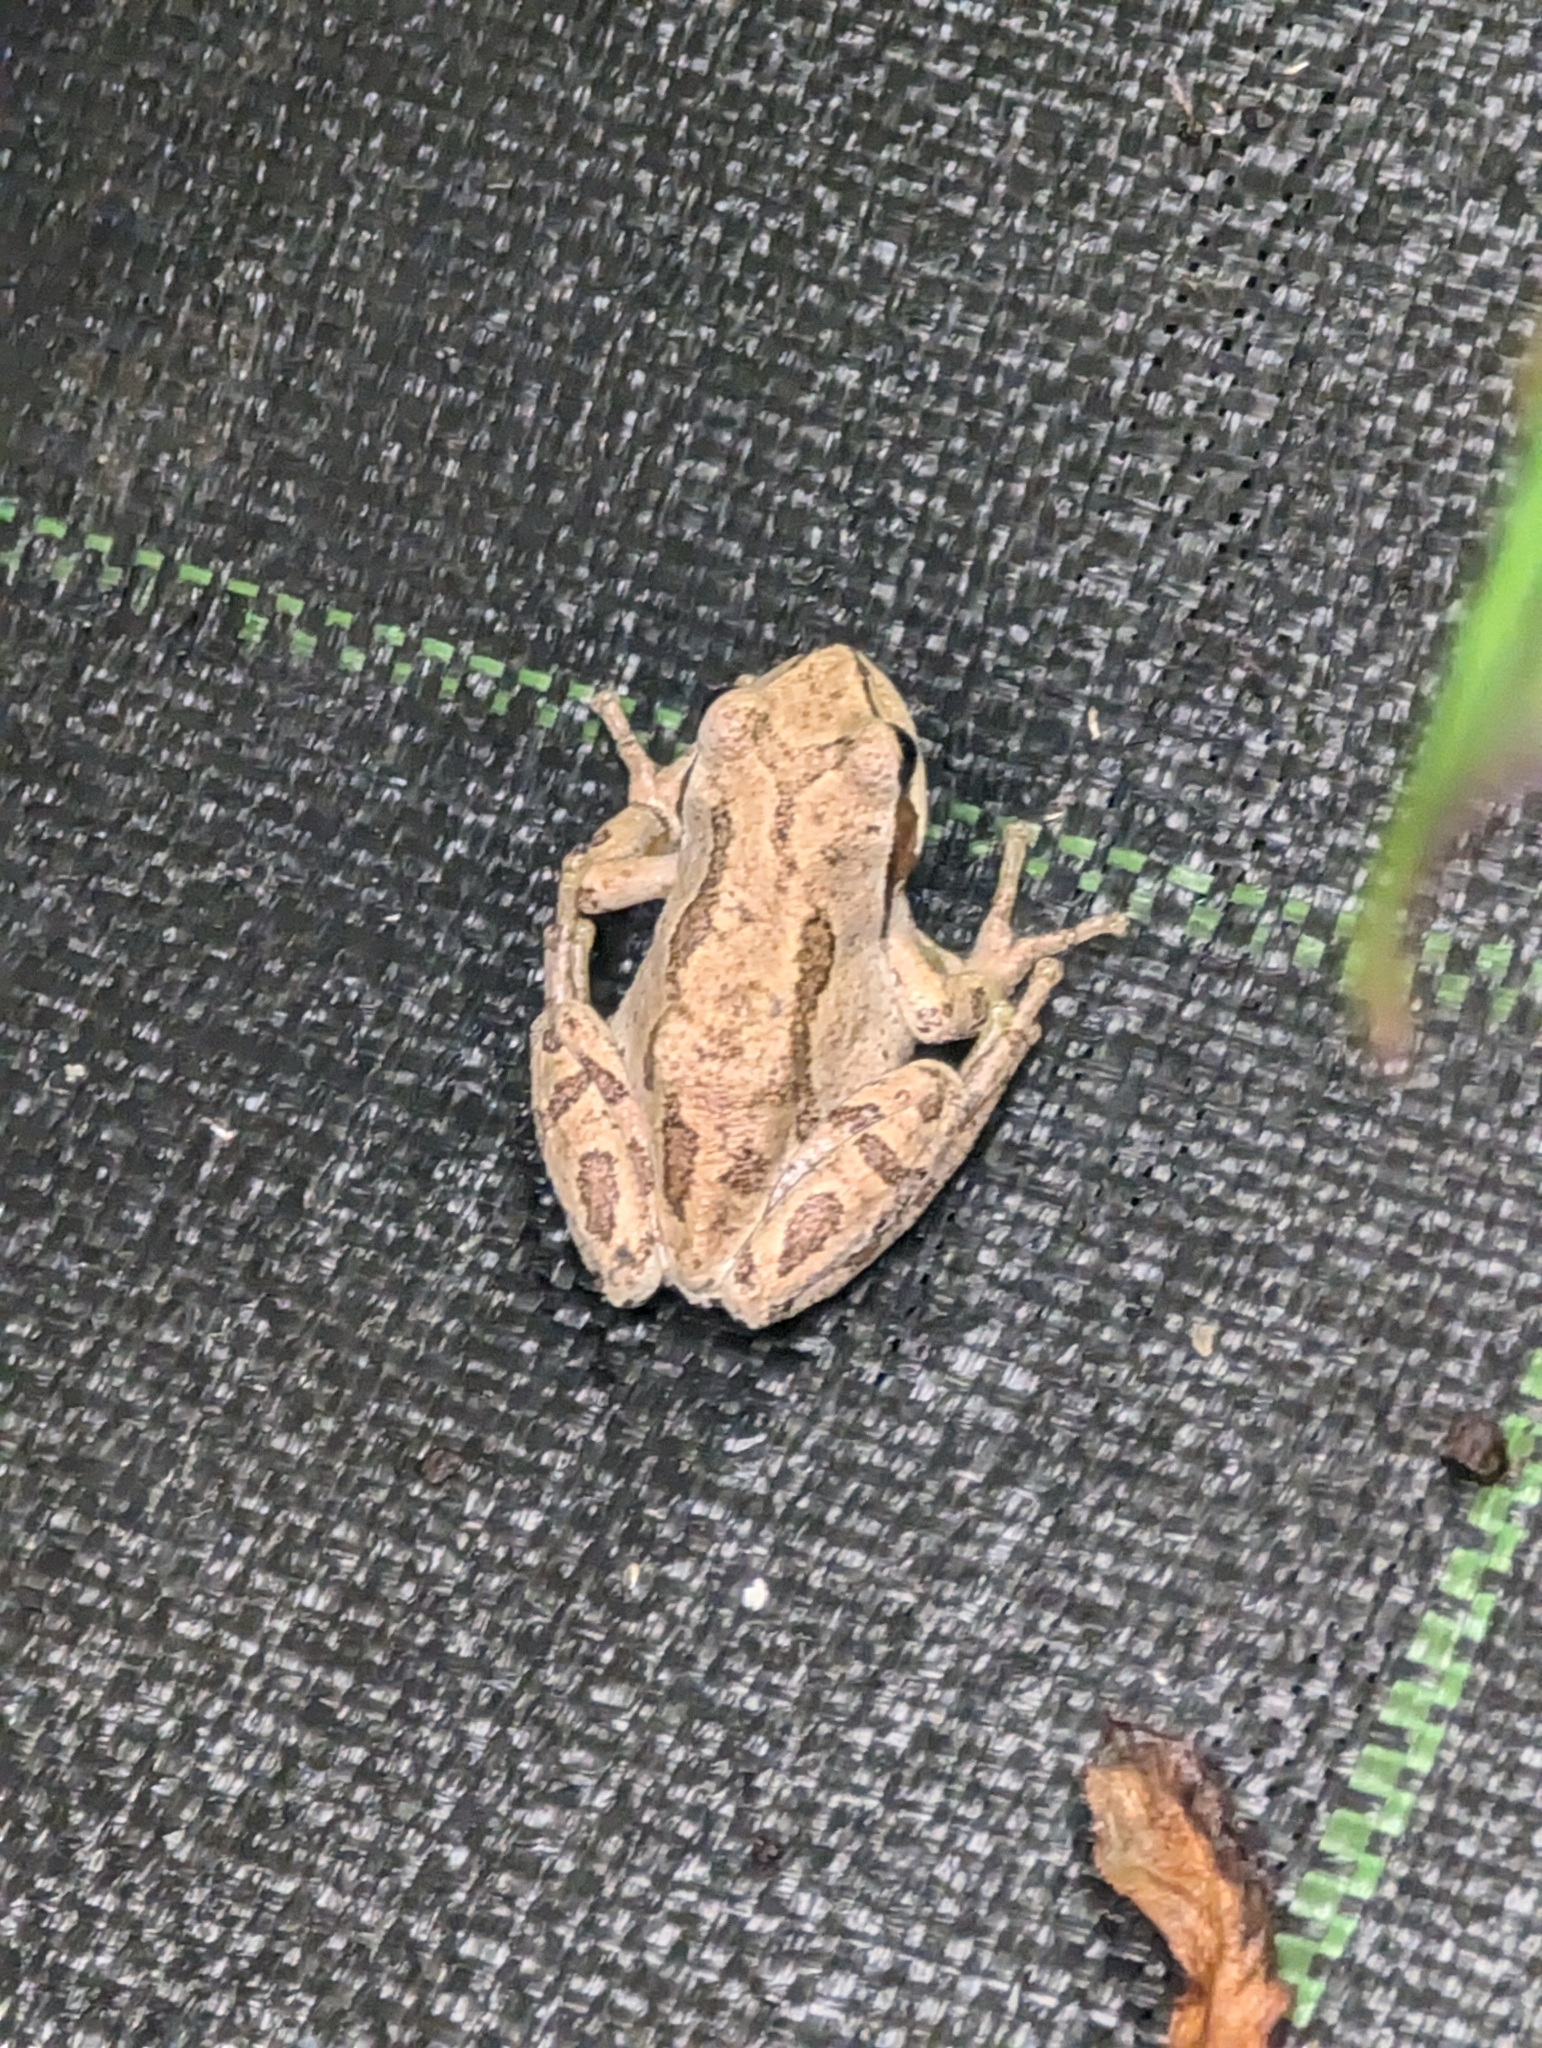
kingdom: Animalia
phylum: Chordata
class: Amphibia
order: Anura
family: Hylidae
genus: Pseudacris
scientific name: Pseudacris regilla
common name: Pacific chorus frog
